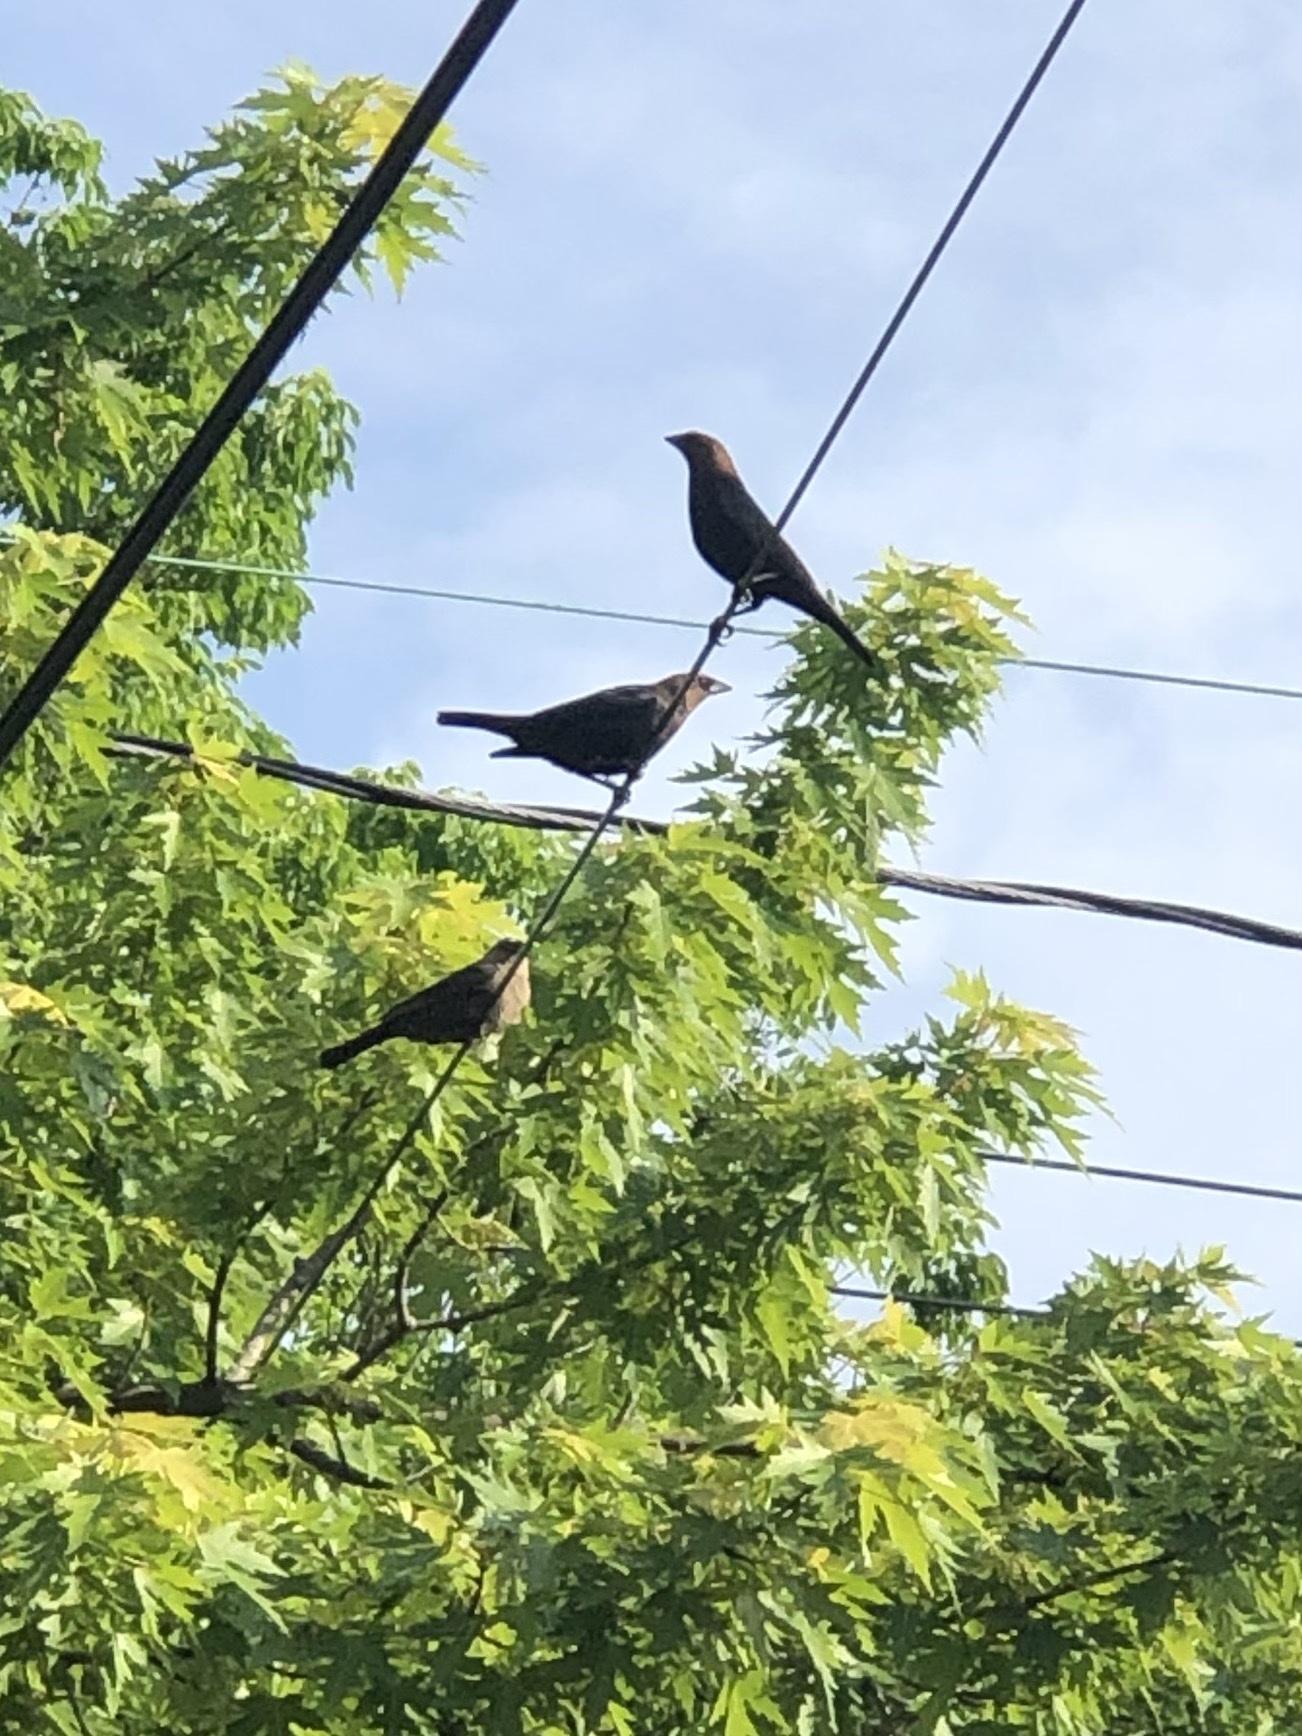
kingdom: Animalia
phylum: Chordata
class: Aves
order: Passeriformes
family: Icteridae
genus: Molothrus
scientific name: Molothrus ater
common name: Brown-headed cowbird
